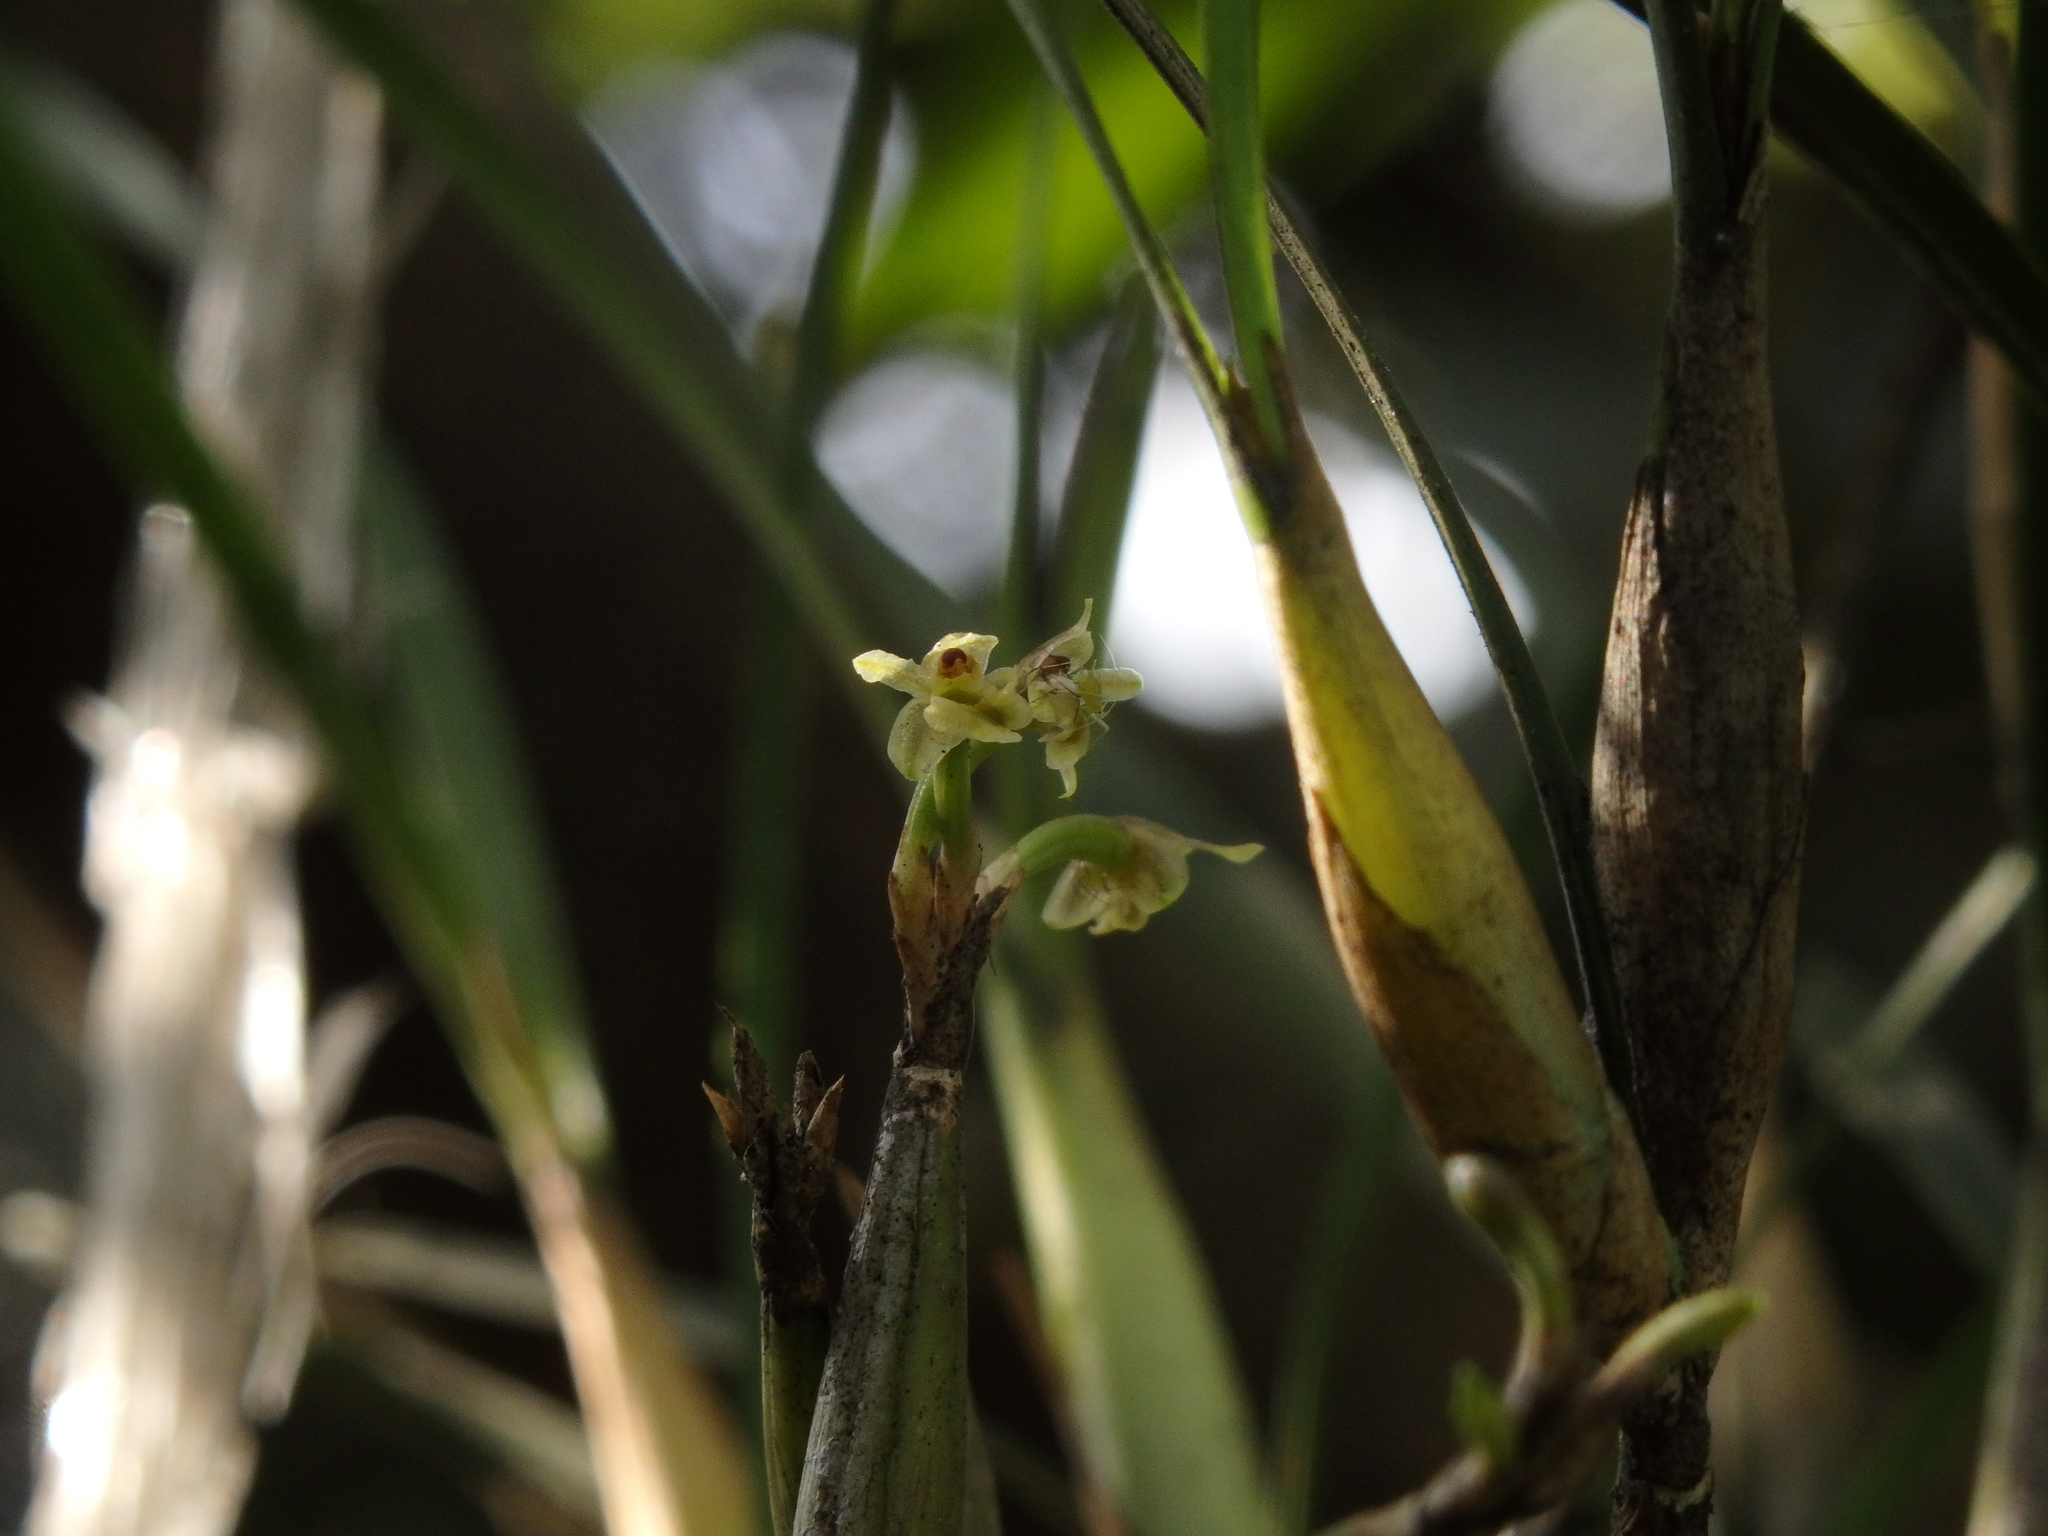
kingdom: Plantae
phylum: Tracheophyta
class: Liliopsida
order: Asparagales
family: Orchidaceae
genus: Scaphyglottis
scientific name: Scaphyglottis fasciculata
